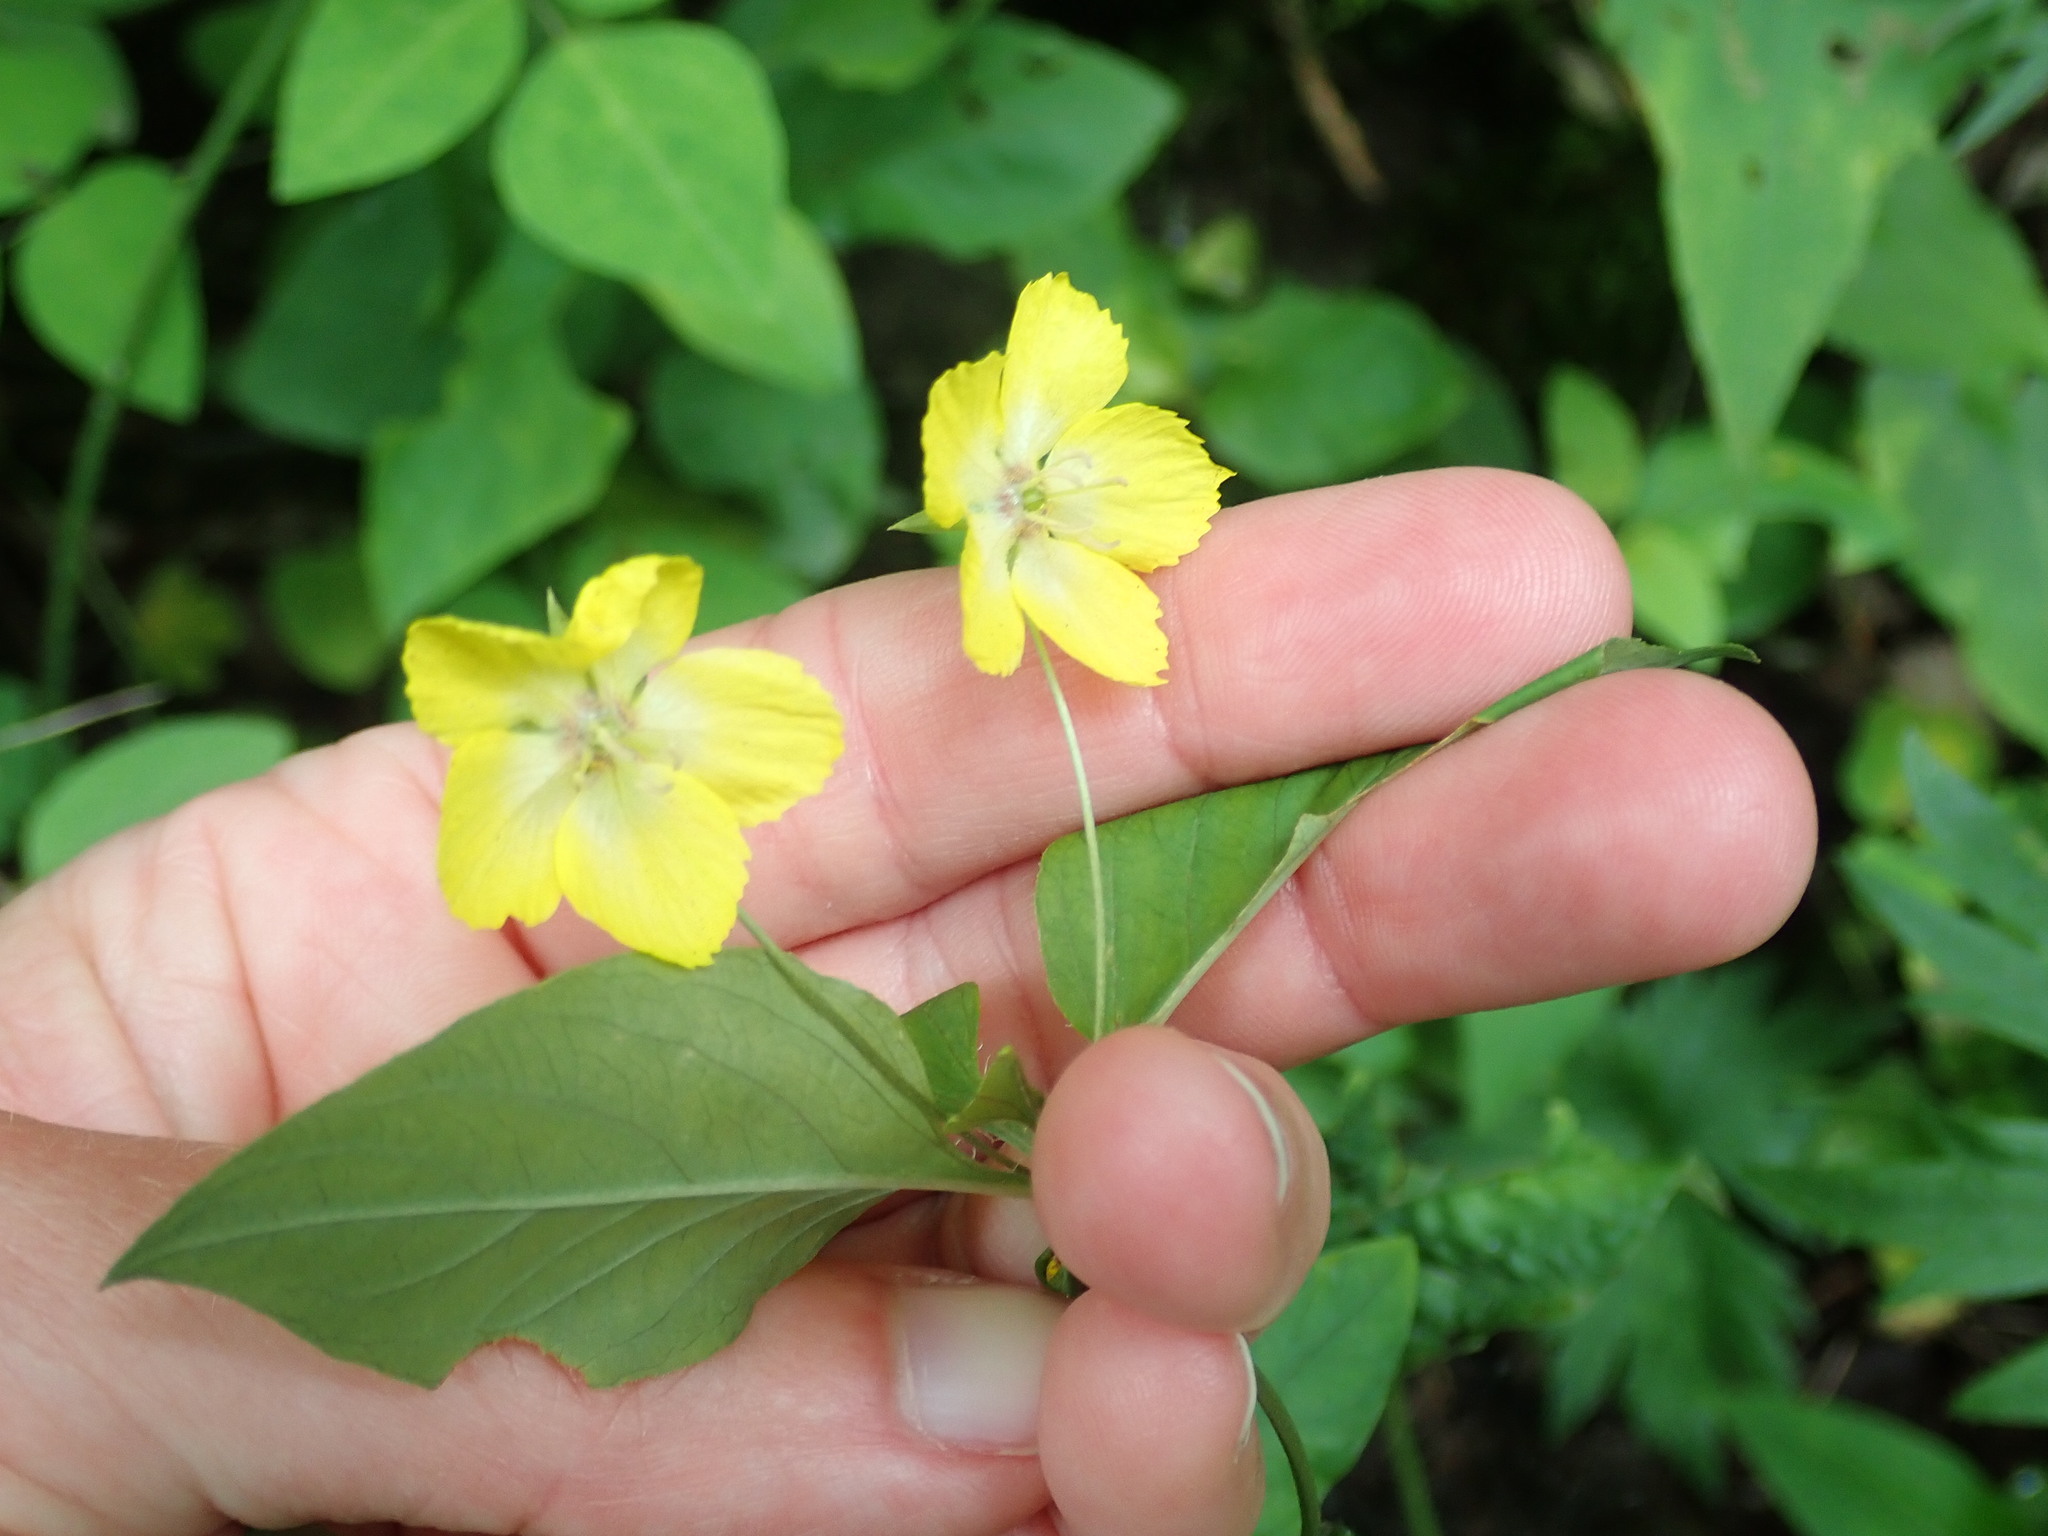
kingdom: Plantae
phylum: Tracheophyta
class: Magnoliopsida
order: Ericales
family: Primulaceae
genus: Lysimachia
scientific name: Lysimachia ciliata
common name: Fringed loosestrife
